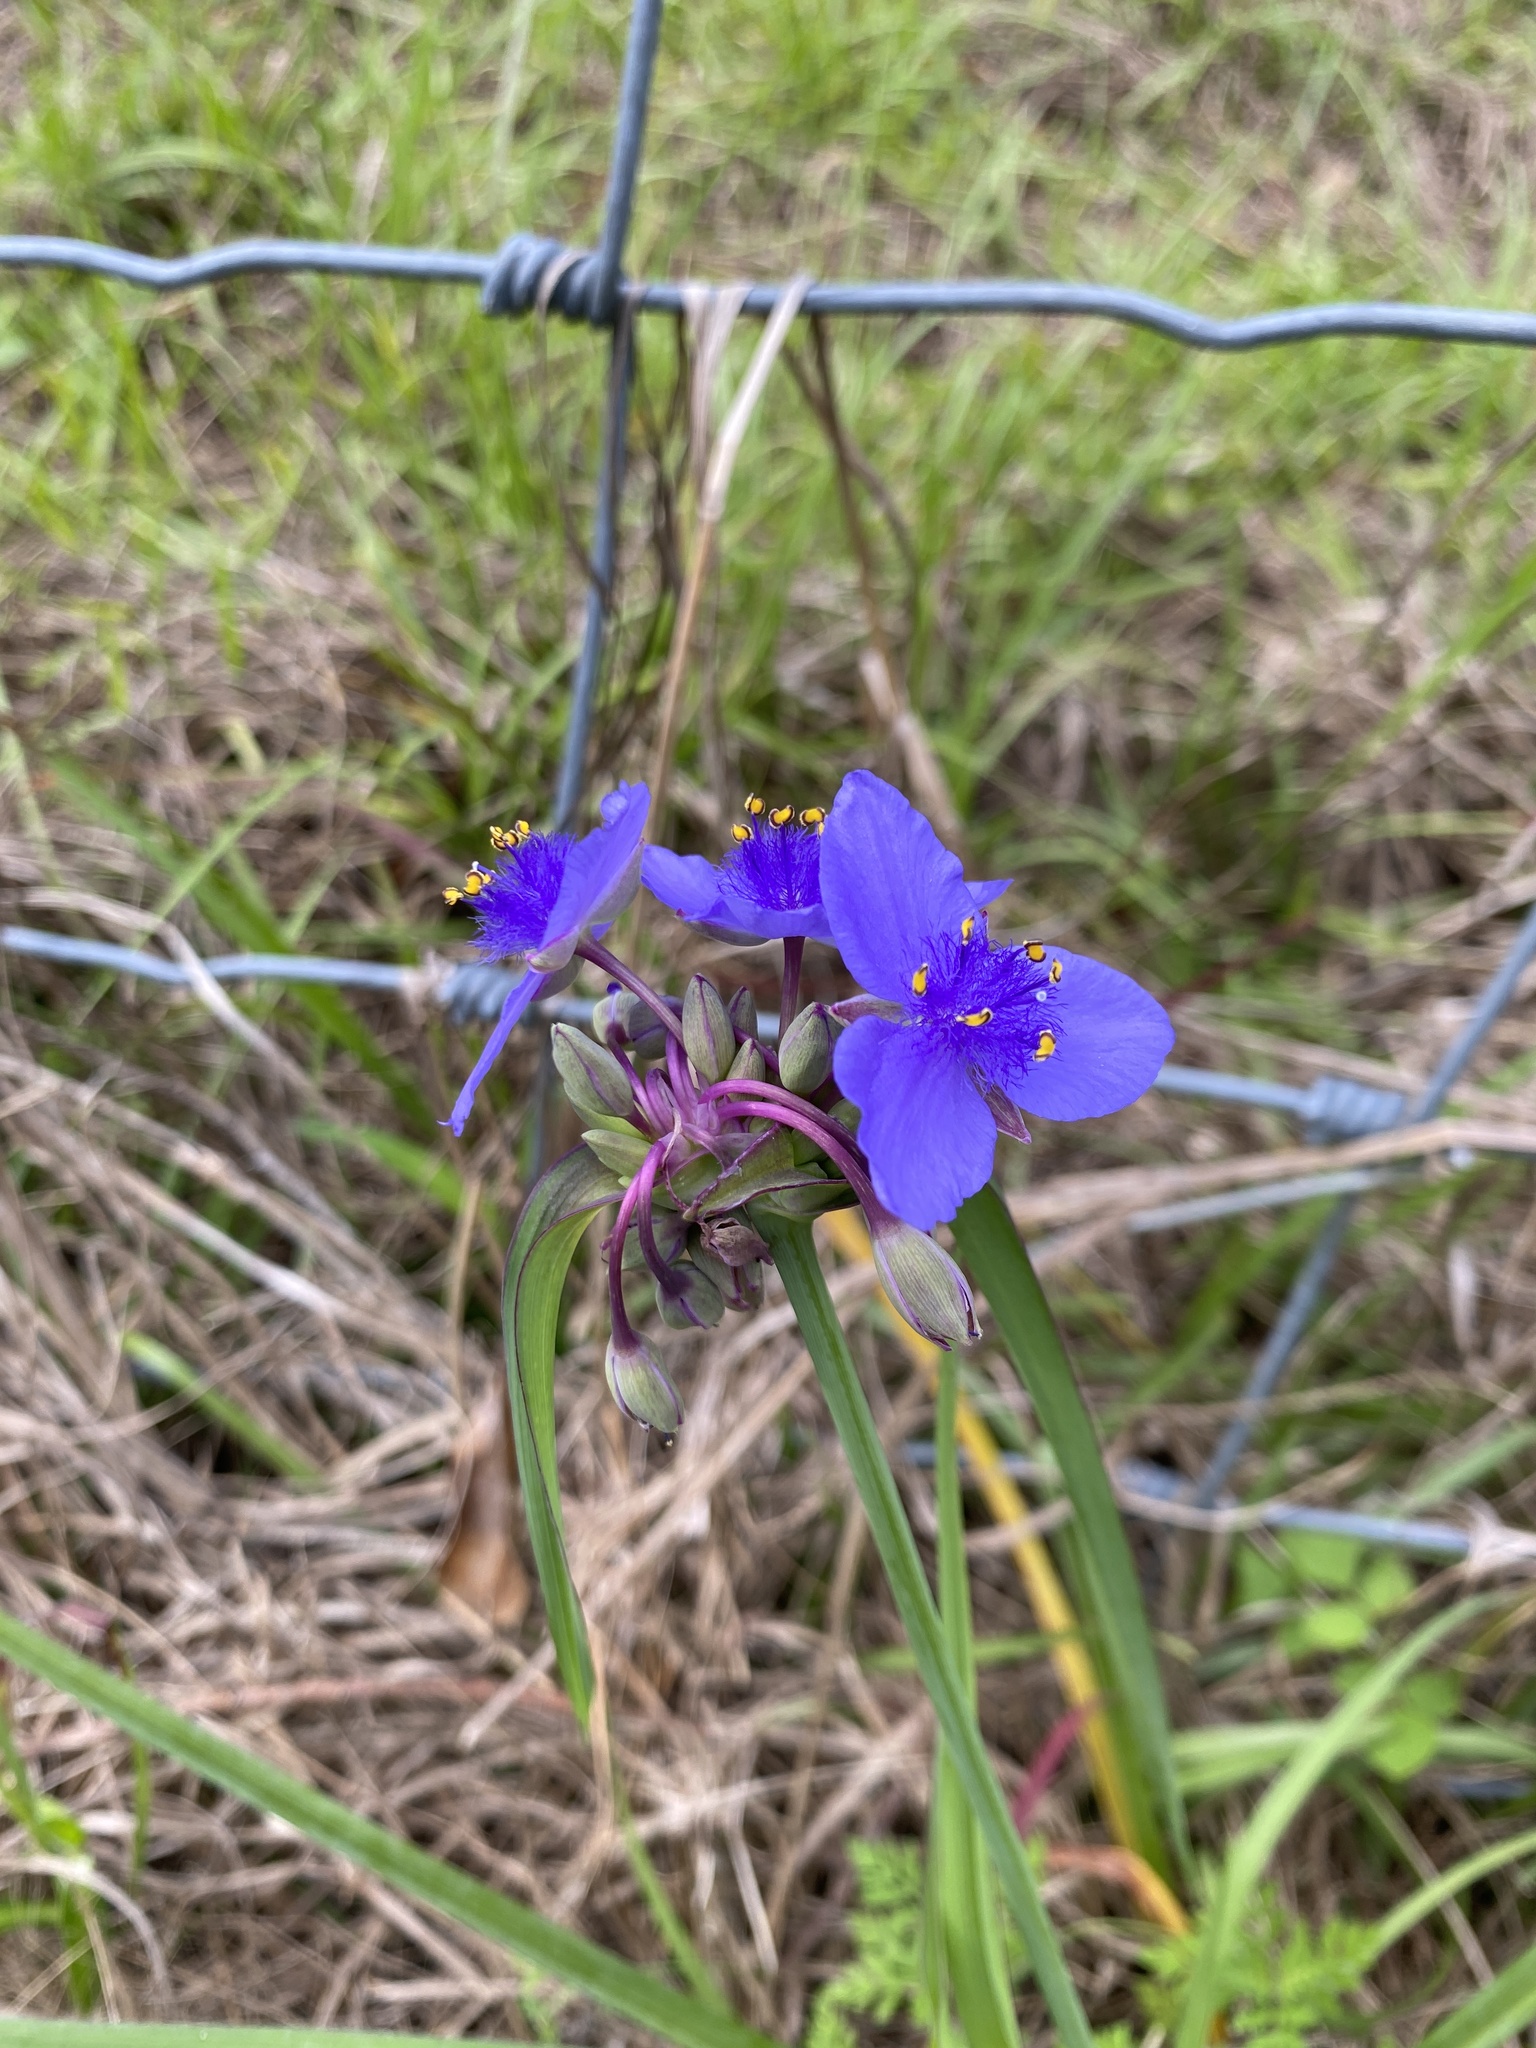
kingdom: Plantae
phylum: Tracheophyta
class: Liliopsida
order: Commelinales
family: Commelinaceae
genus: Tradescantia
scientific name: Tradescantia ohiensis
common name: Ohio spiderwort
